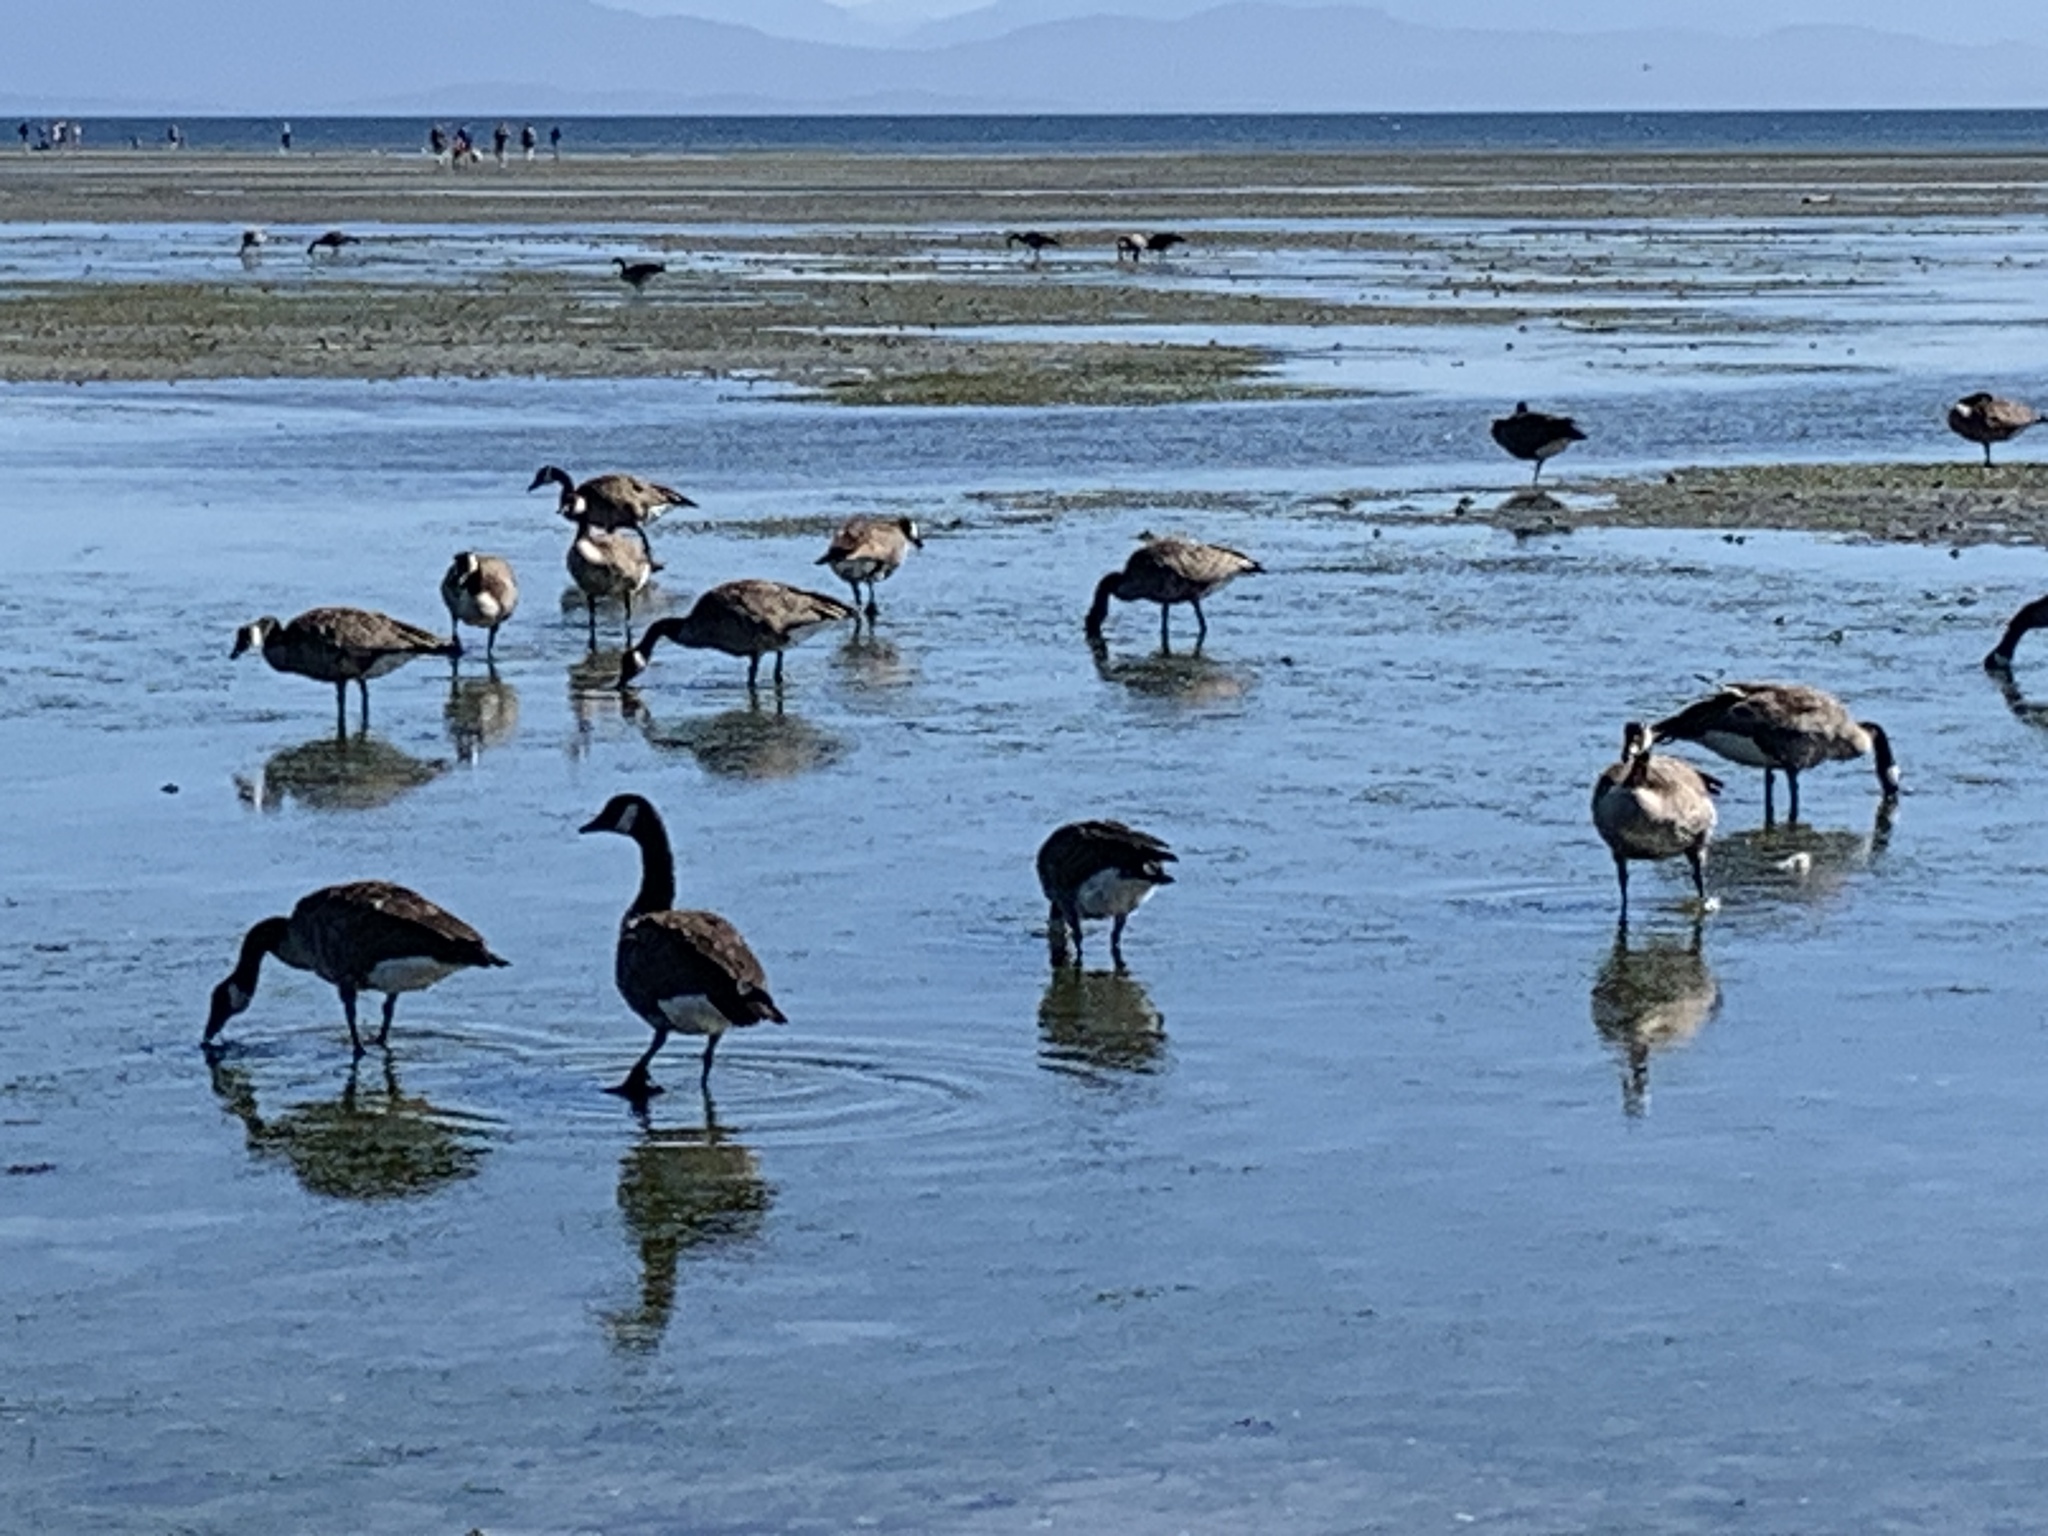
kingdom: Animalia
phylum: Chordata
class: Aves
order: Anseriformes
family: Anatidae
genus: Branta
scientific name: Branta canadensis
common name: Canada goose
